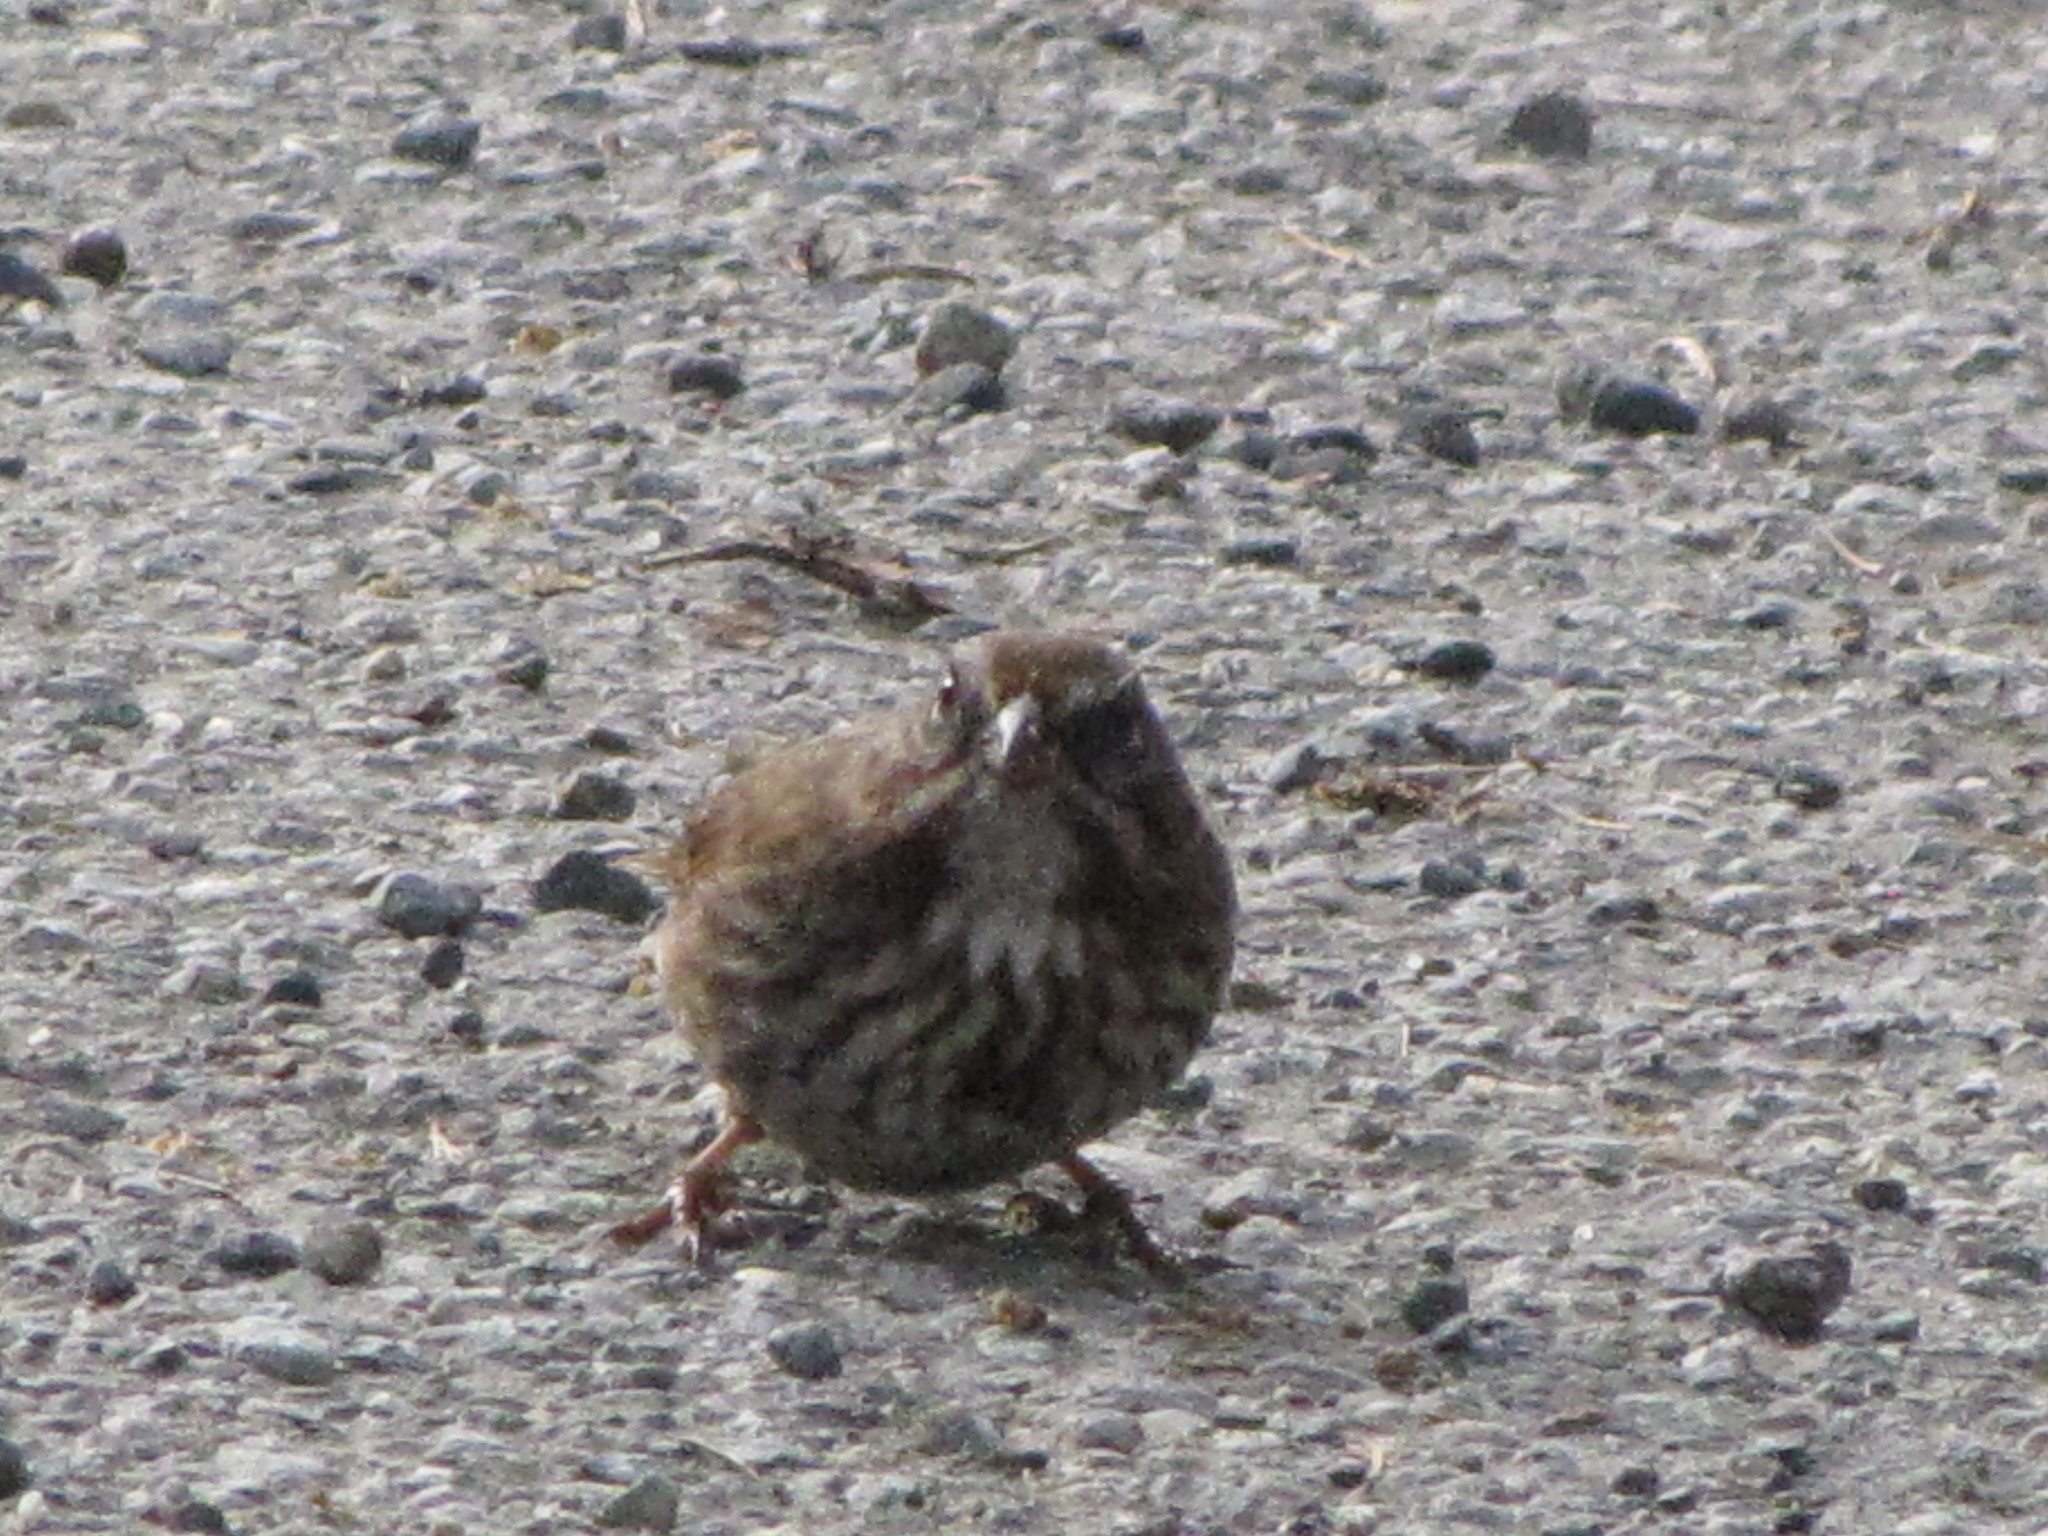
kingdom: Animalia
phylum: Chordata
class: Aves
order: Passeriformes
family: Passerellidae
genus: Melospiza
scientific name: Melospiza melodia
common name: Song sparrow
